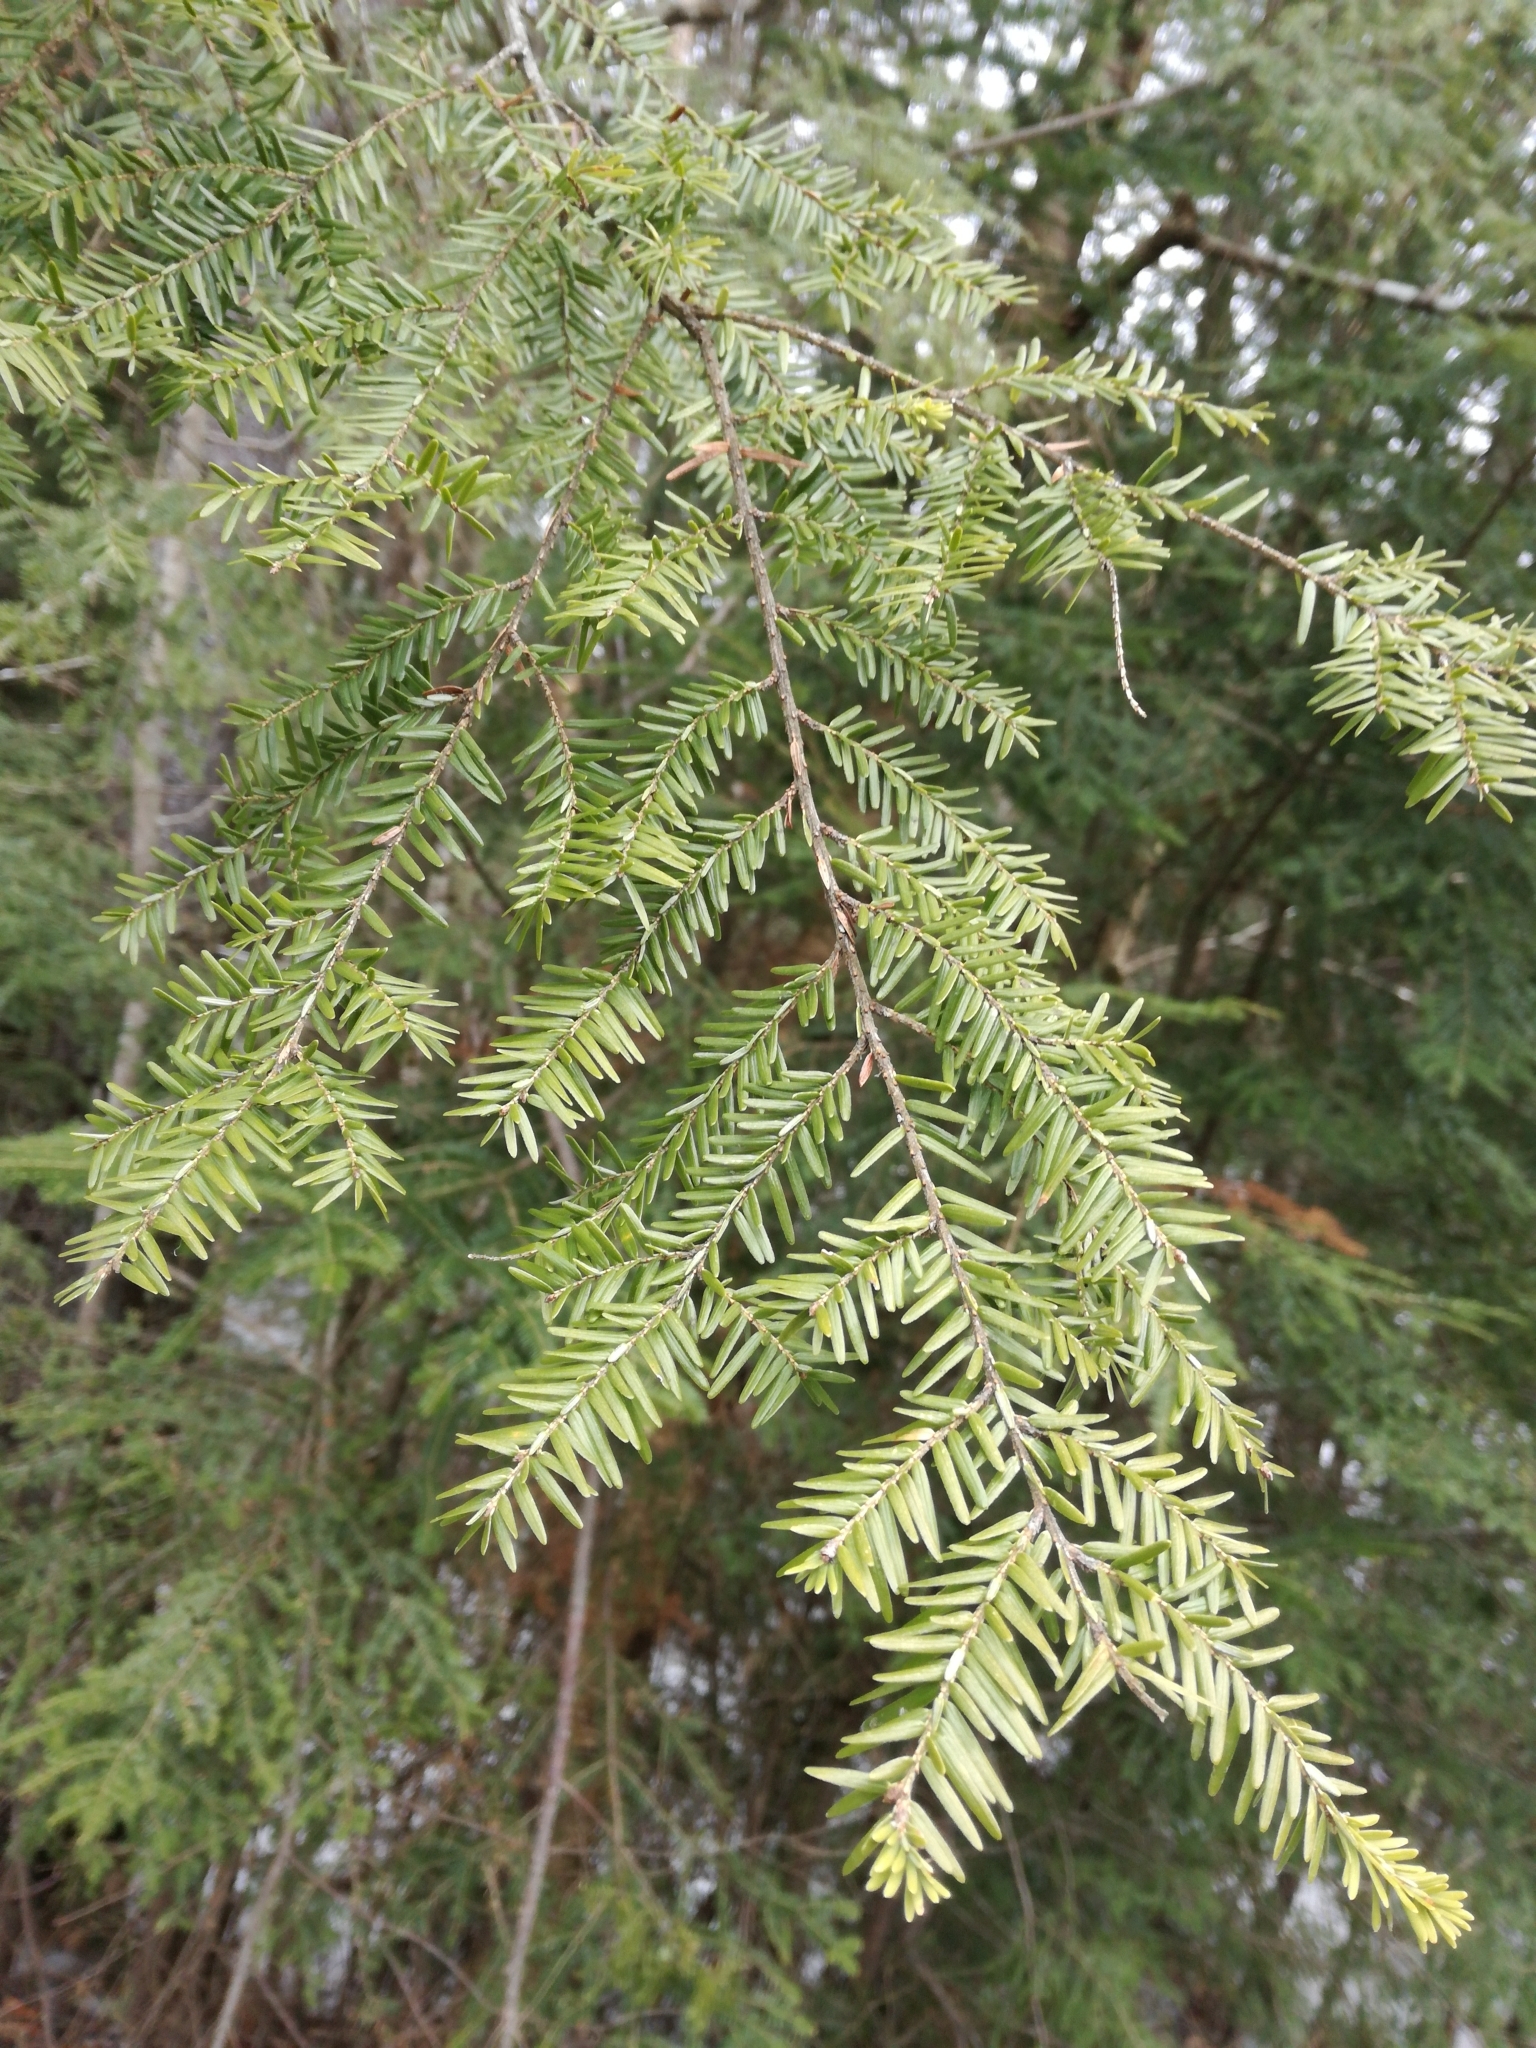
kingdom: Plantae
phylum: Tracheophyta
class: Pinopsida
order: Pinales
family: Pinaceae
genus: Tsuga
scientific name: Tsuga canadensis
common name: Eastern hemlock
